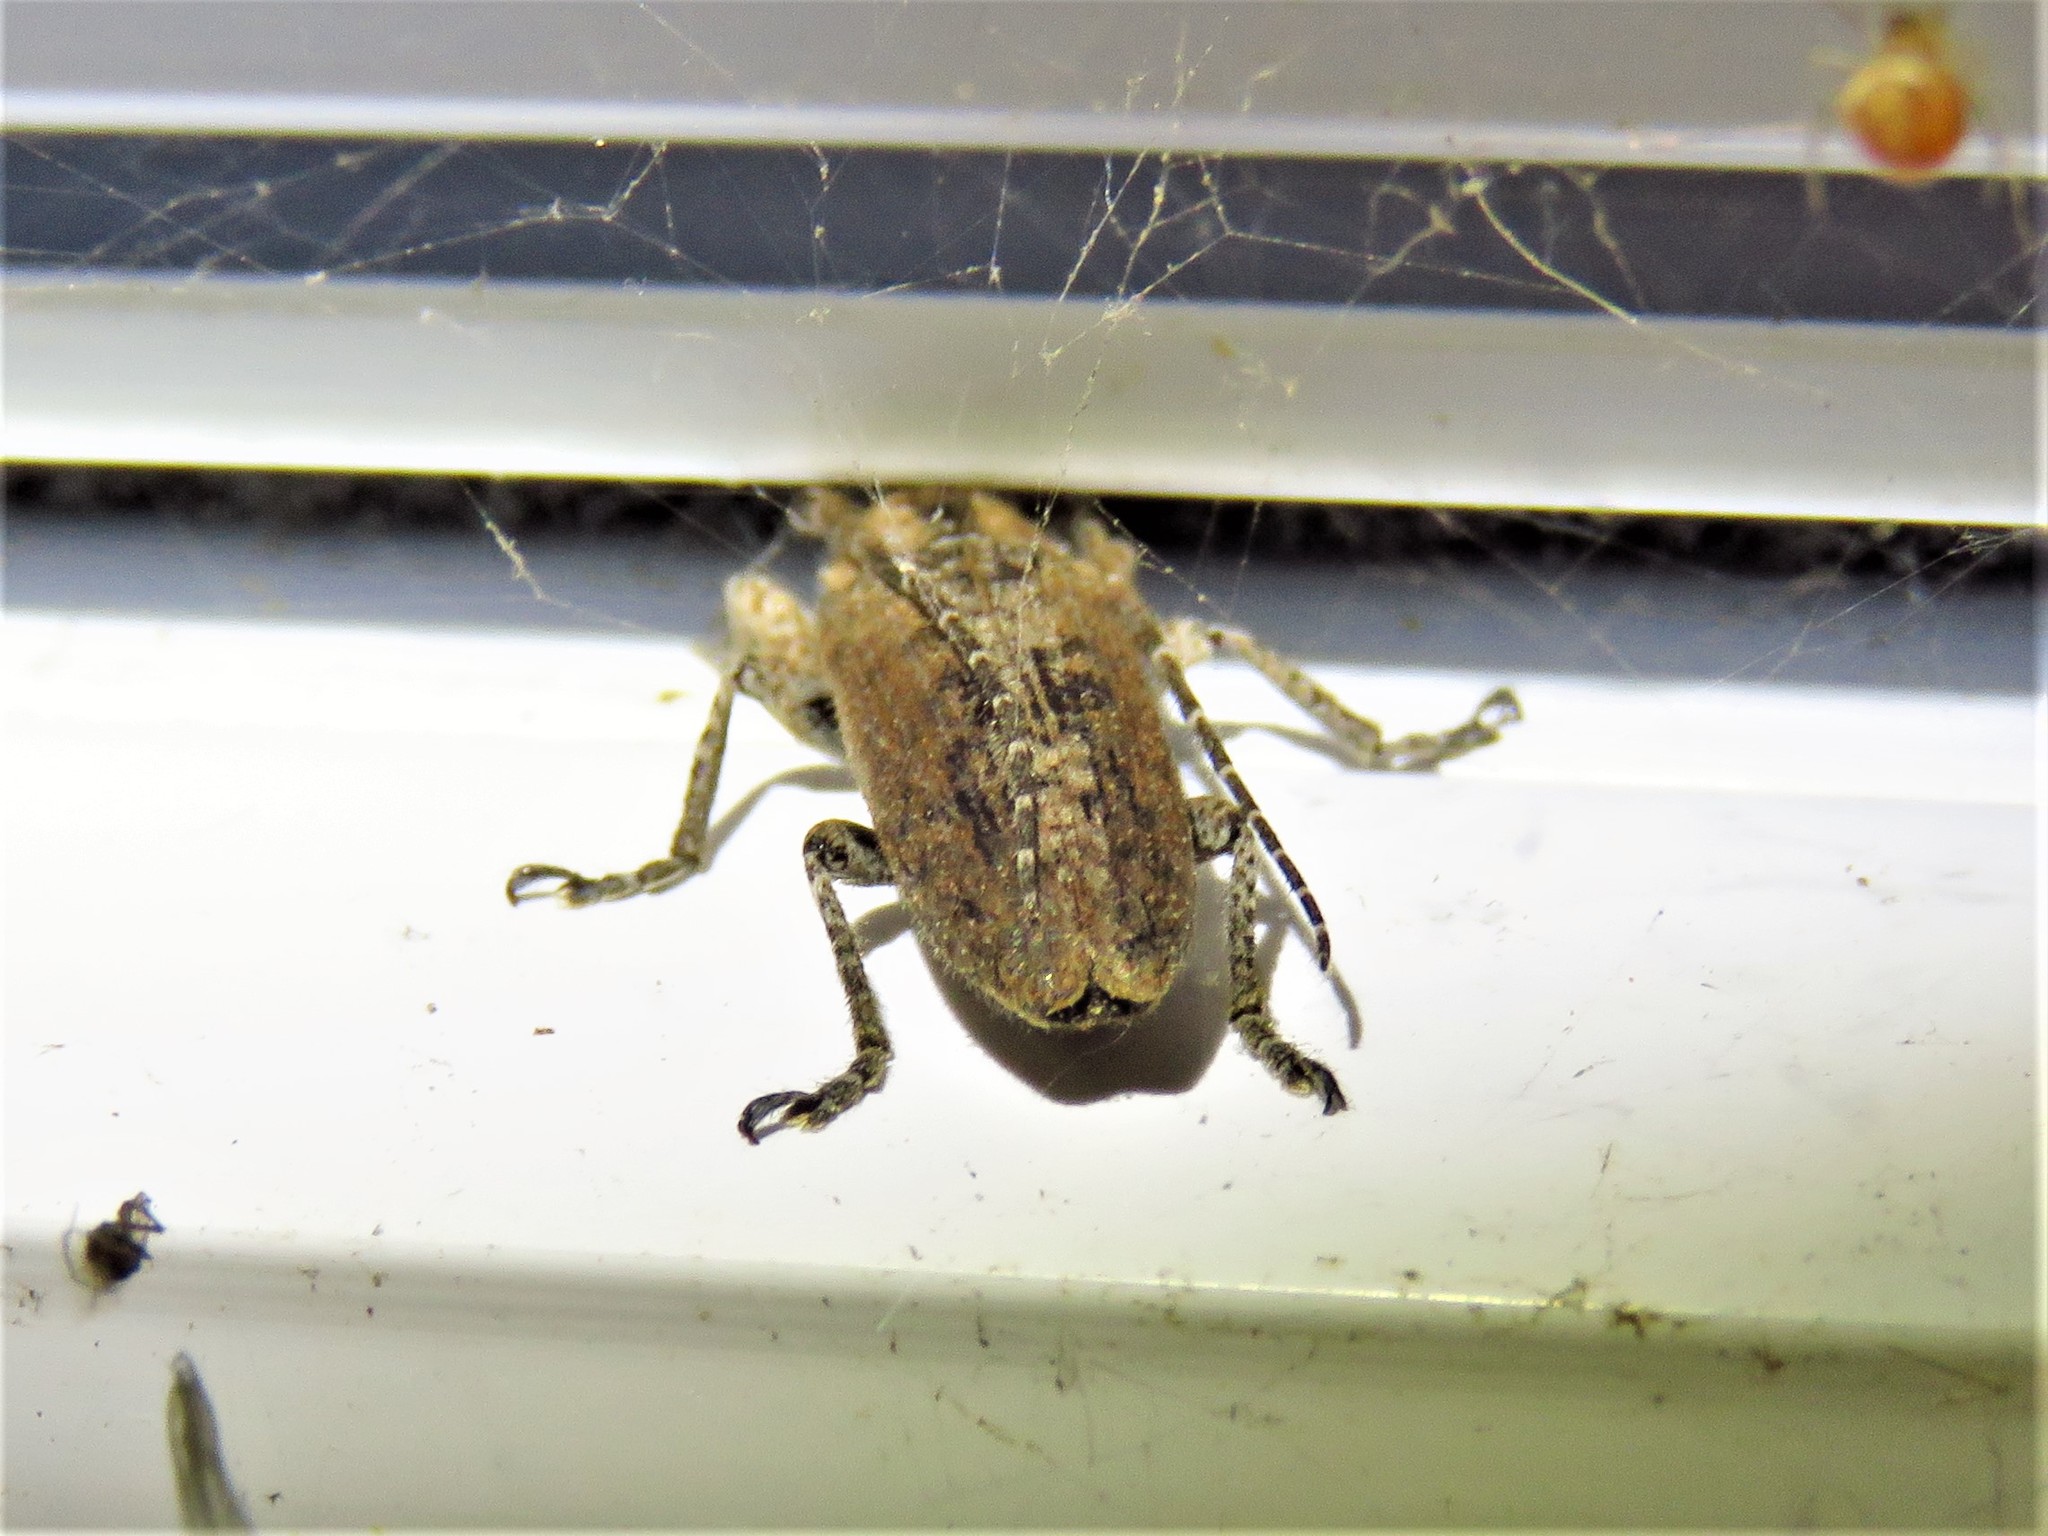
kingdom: Animalia
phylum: Arthropoda
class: Insecta
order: Coleoptera
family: Cerambycidae
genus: Ataxia
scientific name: Ataxia crypta
